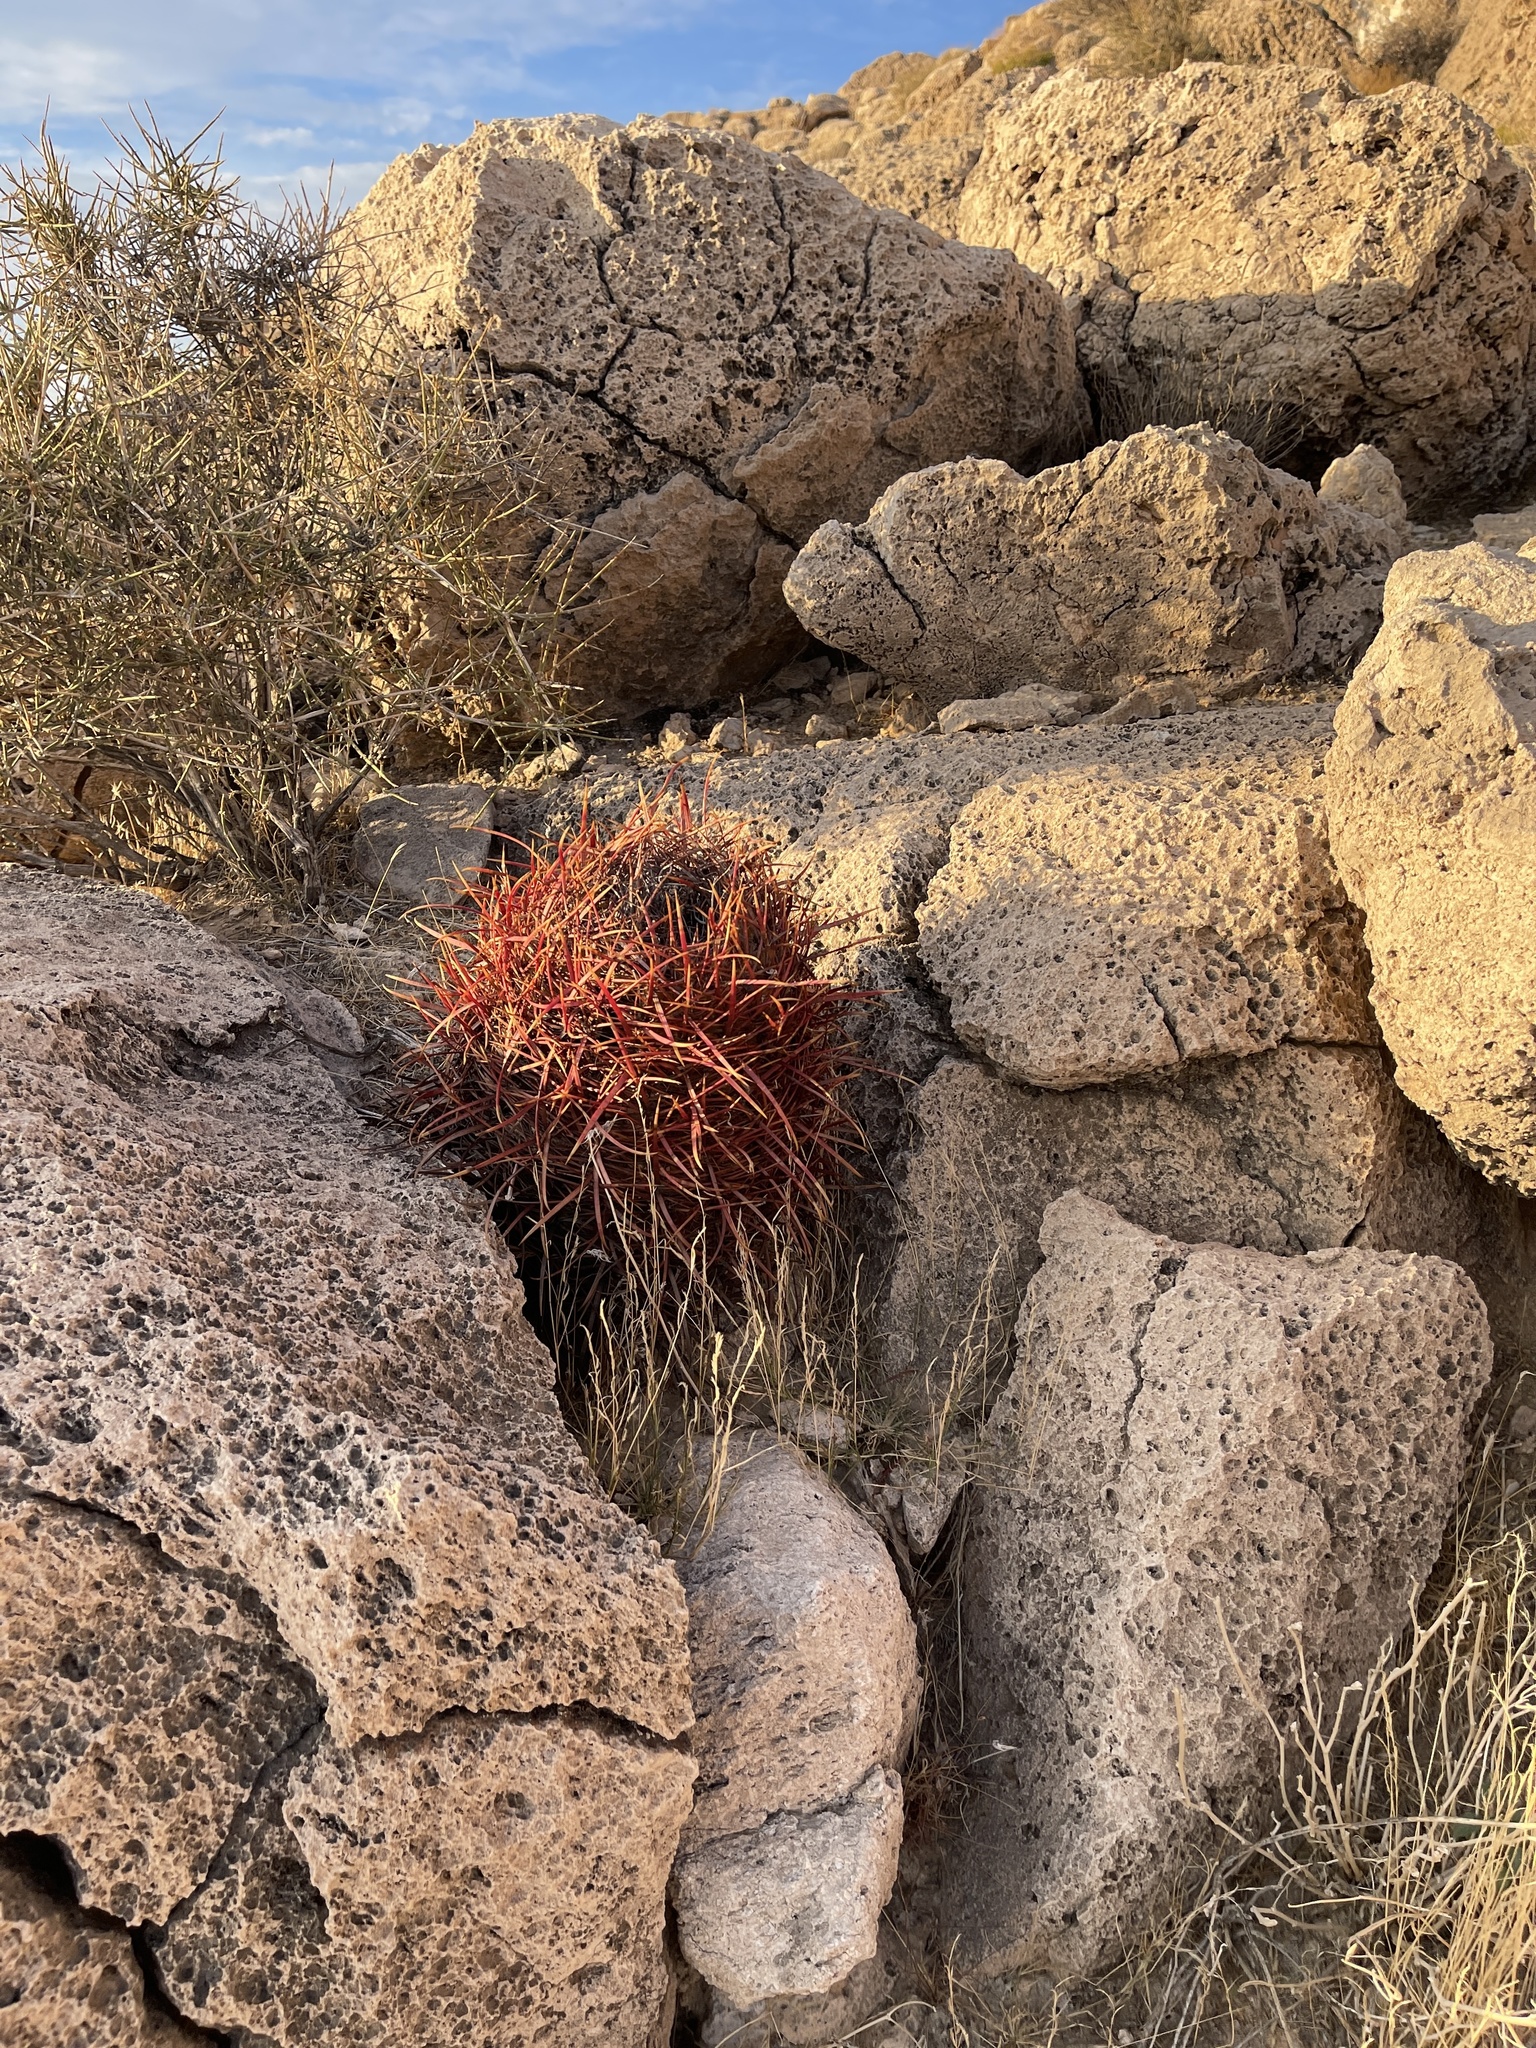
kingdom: Plantae
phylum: Tracheophyta
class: Magnoliopsida
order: Caryophyllales
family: Cactaceae
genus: Ferocactus
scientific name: Ferocactus cylindraceus
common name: California barrel cactus
